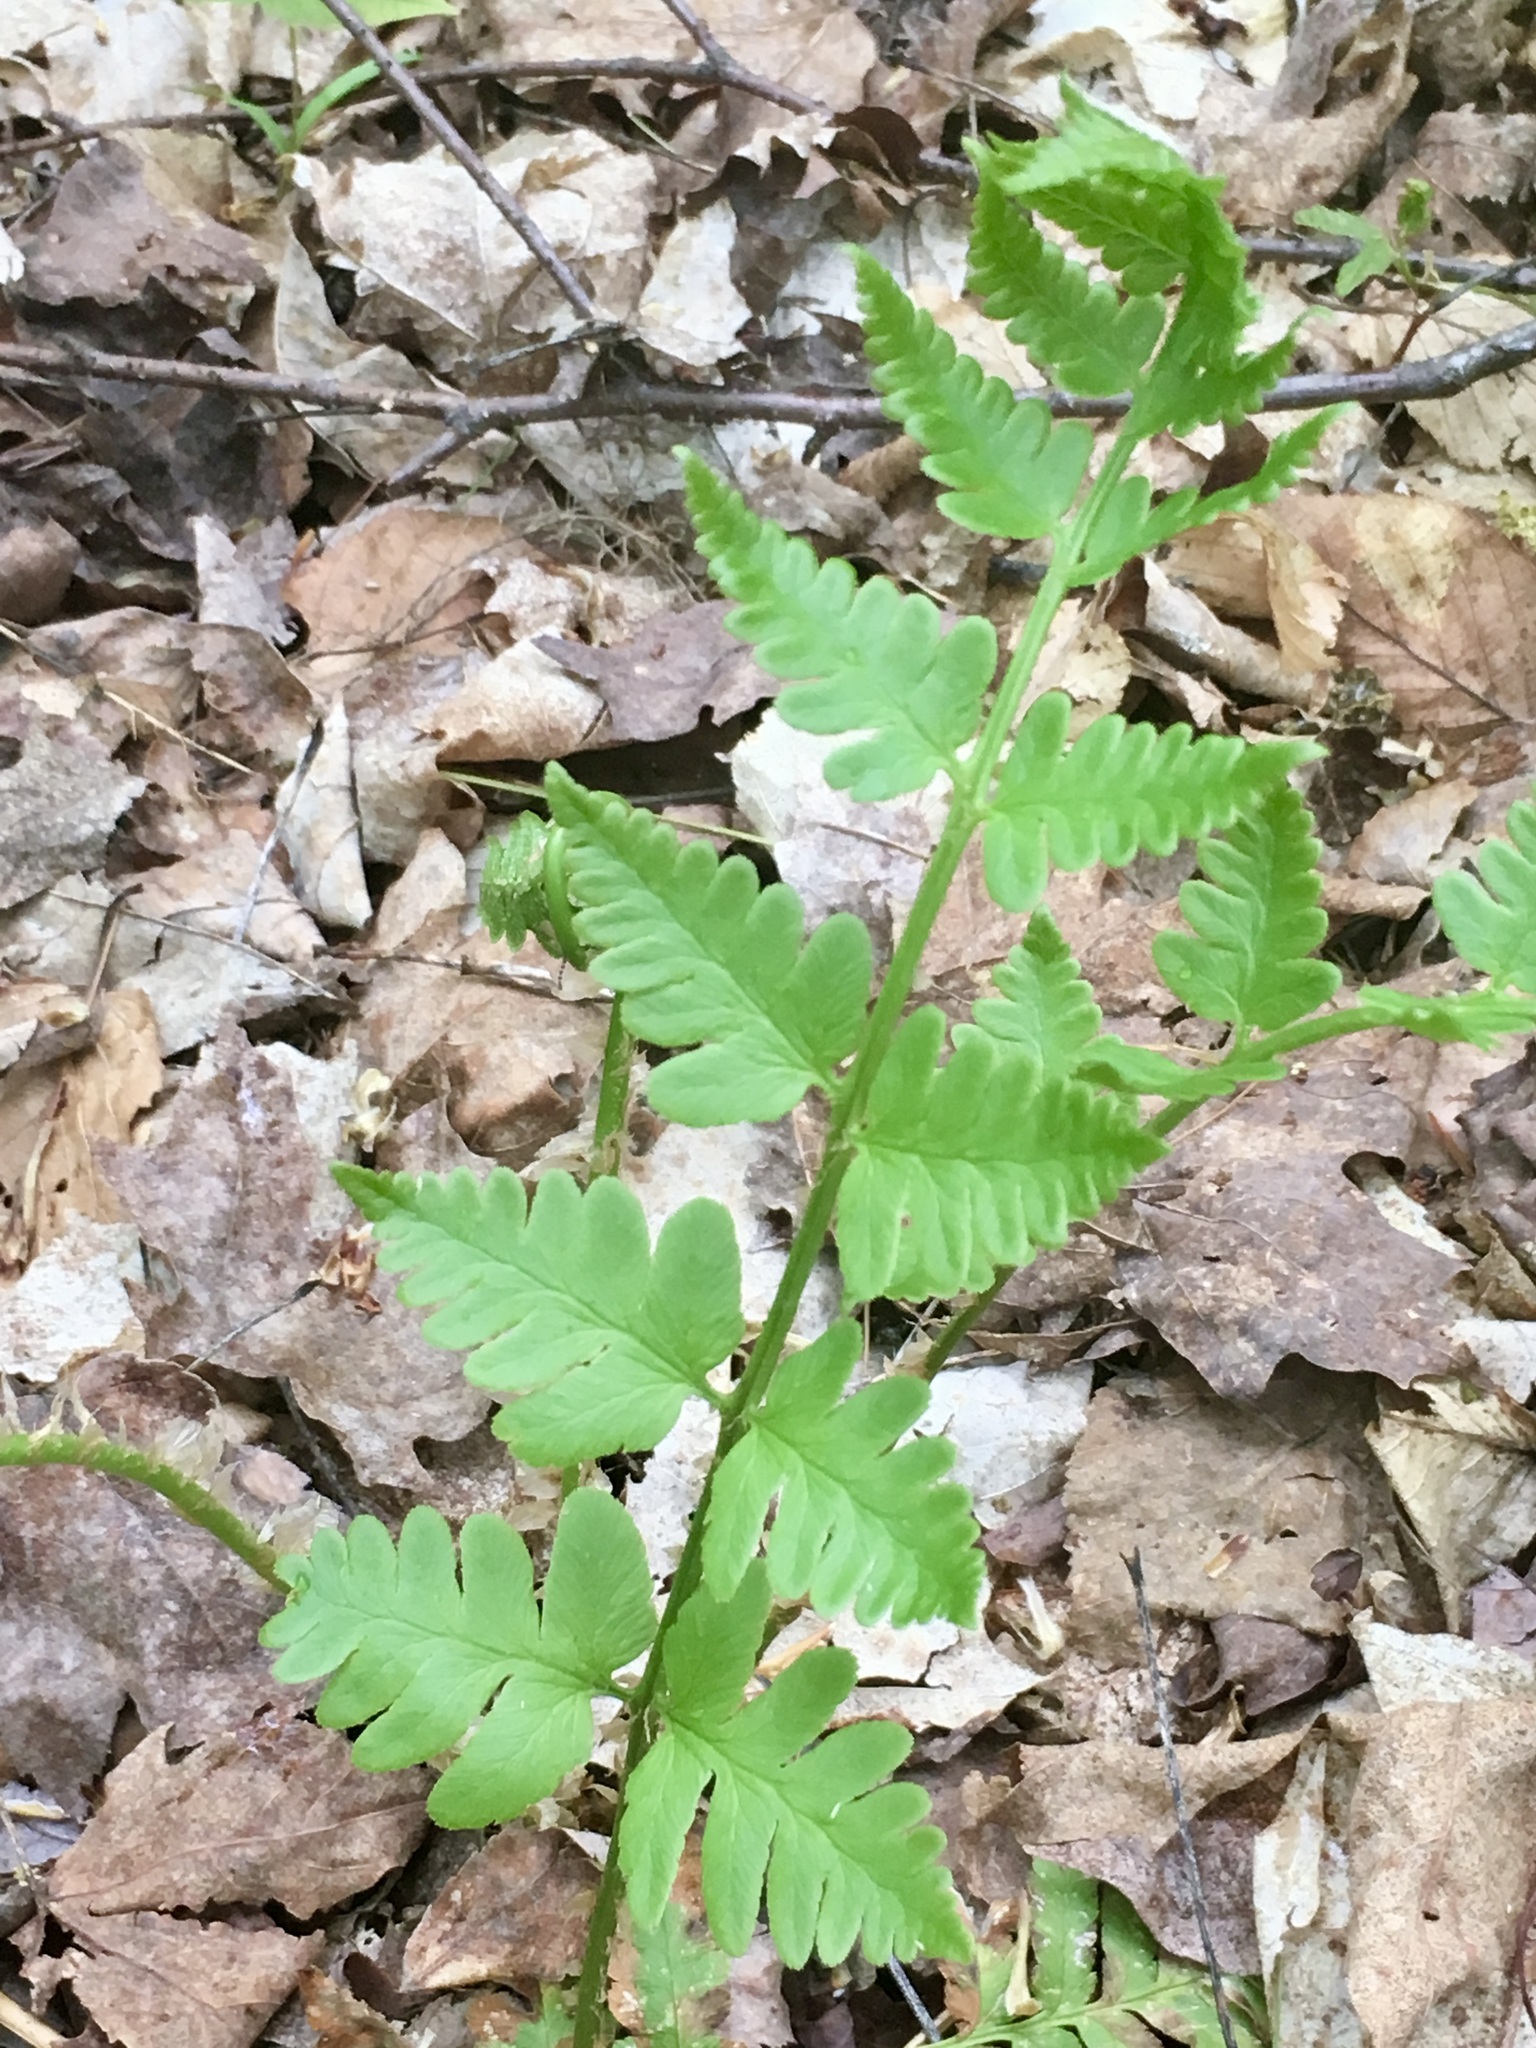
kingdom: Plantae
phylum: Tracheophyta
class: Polypodiopsida
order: Polypodiales
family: Dryopteridaceae
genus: Dryopteris
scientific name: Dryopteris cristata
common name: Crested wood fern
